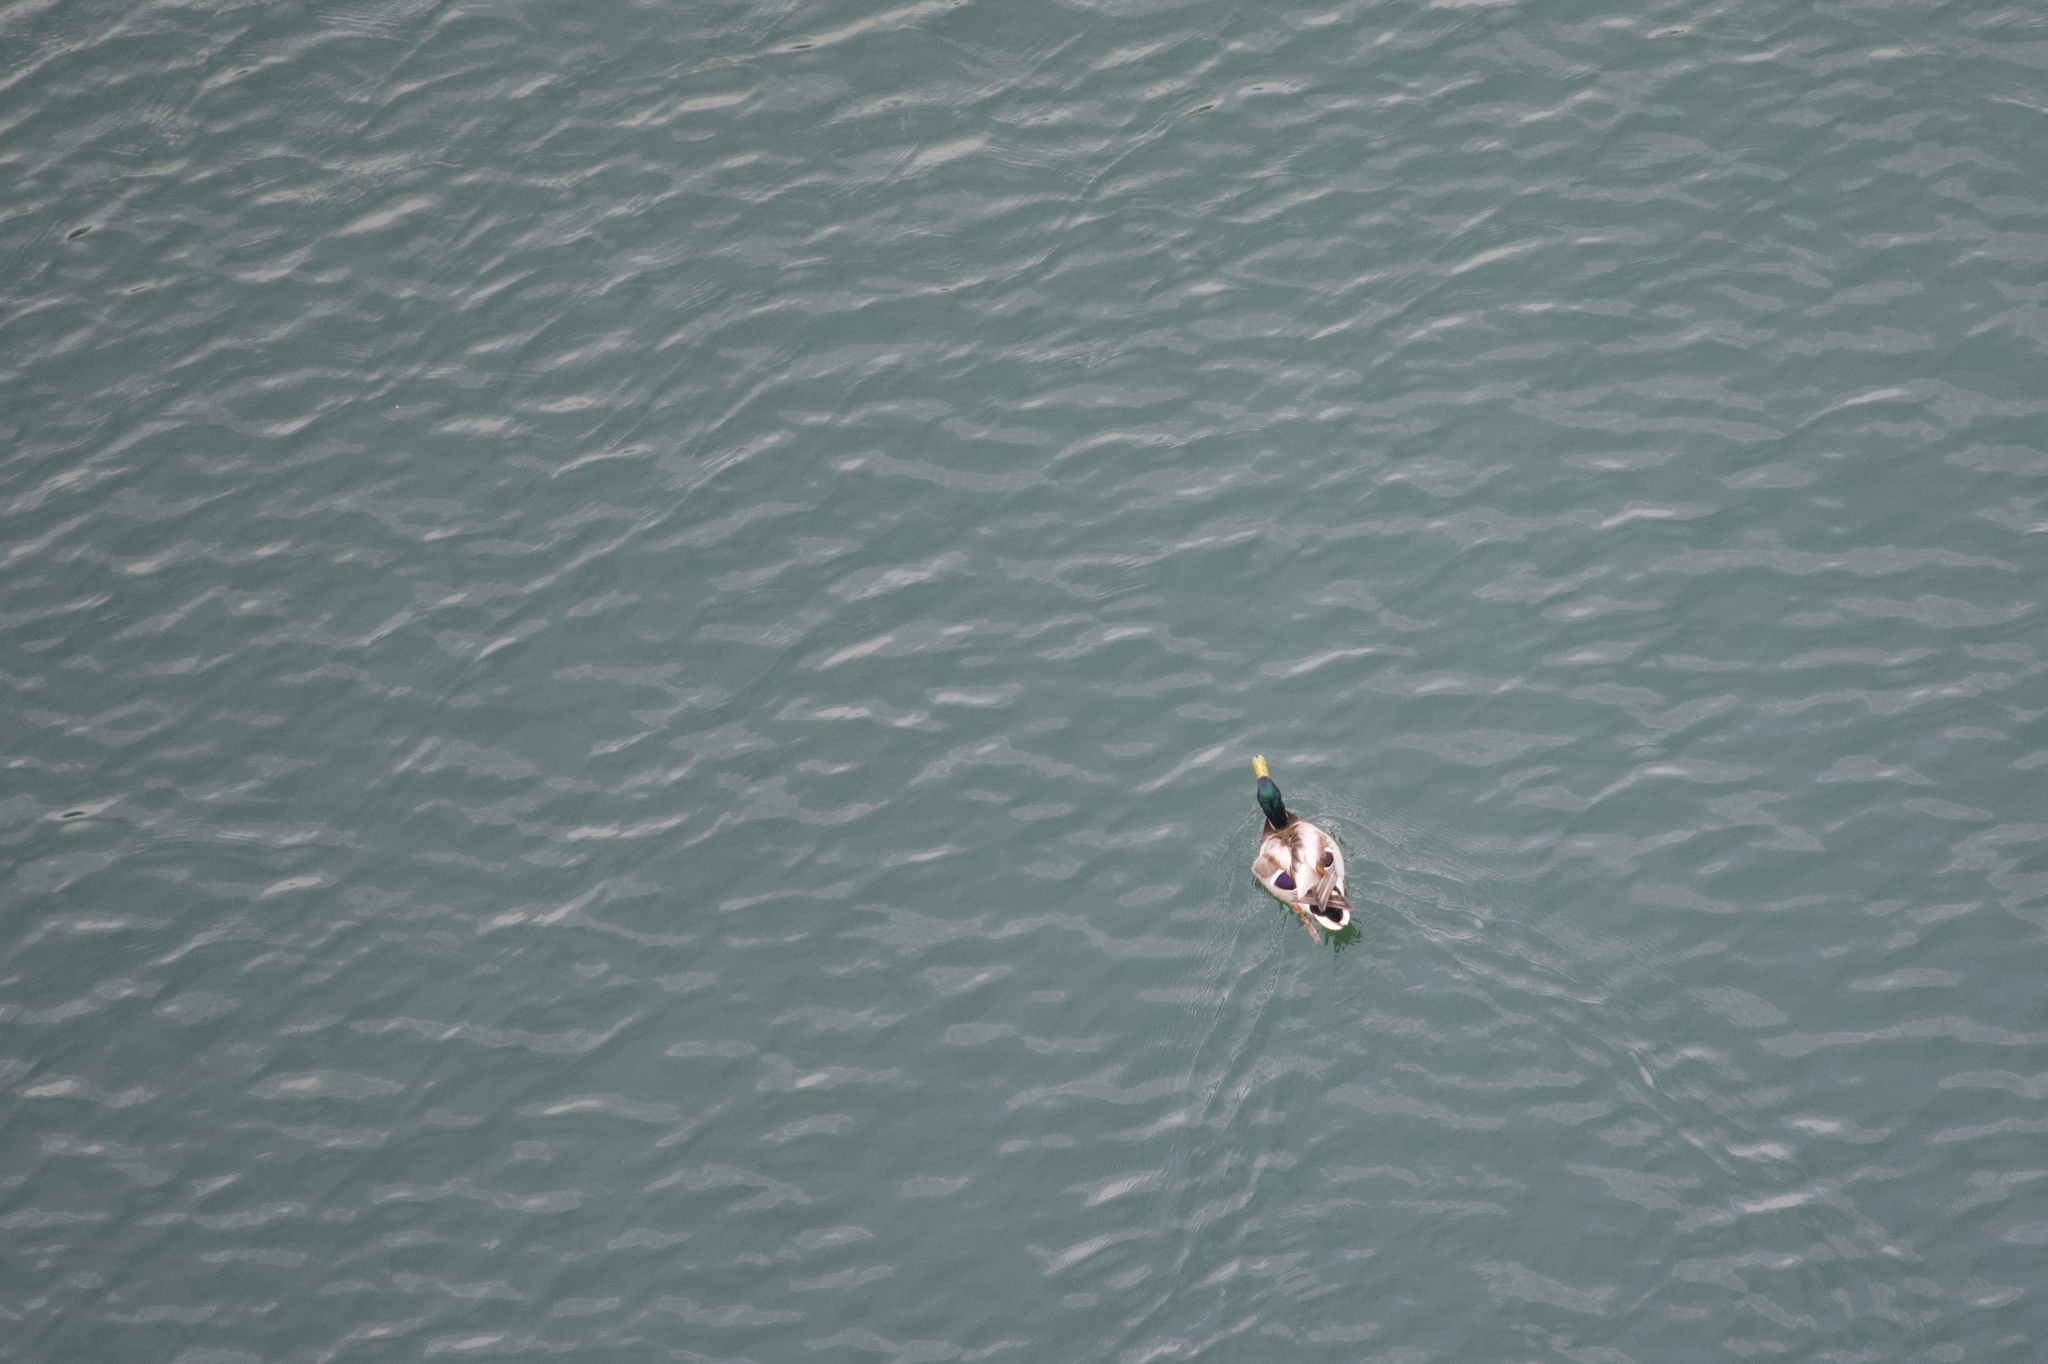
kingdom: Animalia
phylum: Chordata
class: Aves
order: Anseriformes
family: Anatidae
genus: Anas
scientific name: Anas platyrhynchos
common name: Mallard
